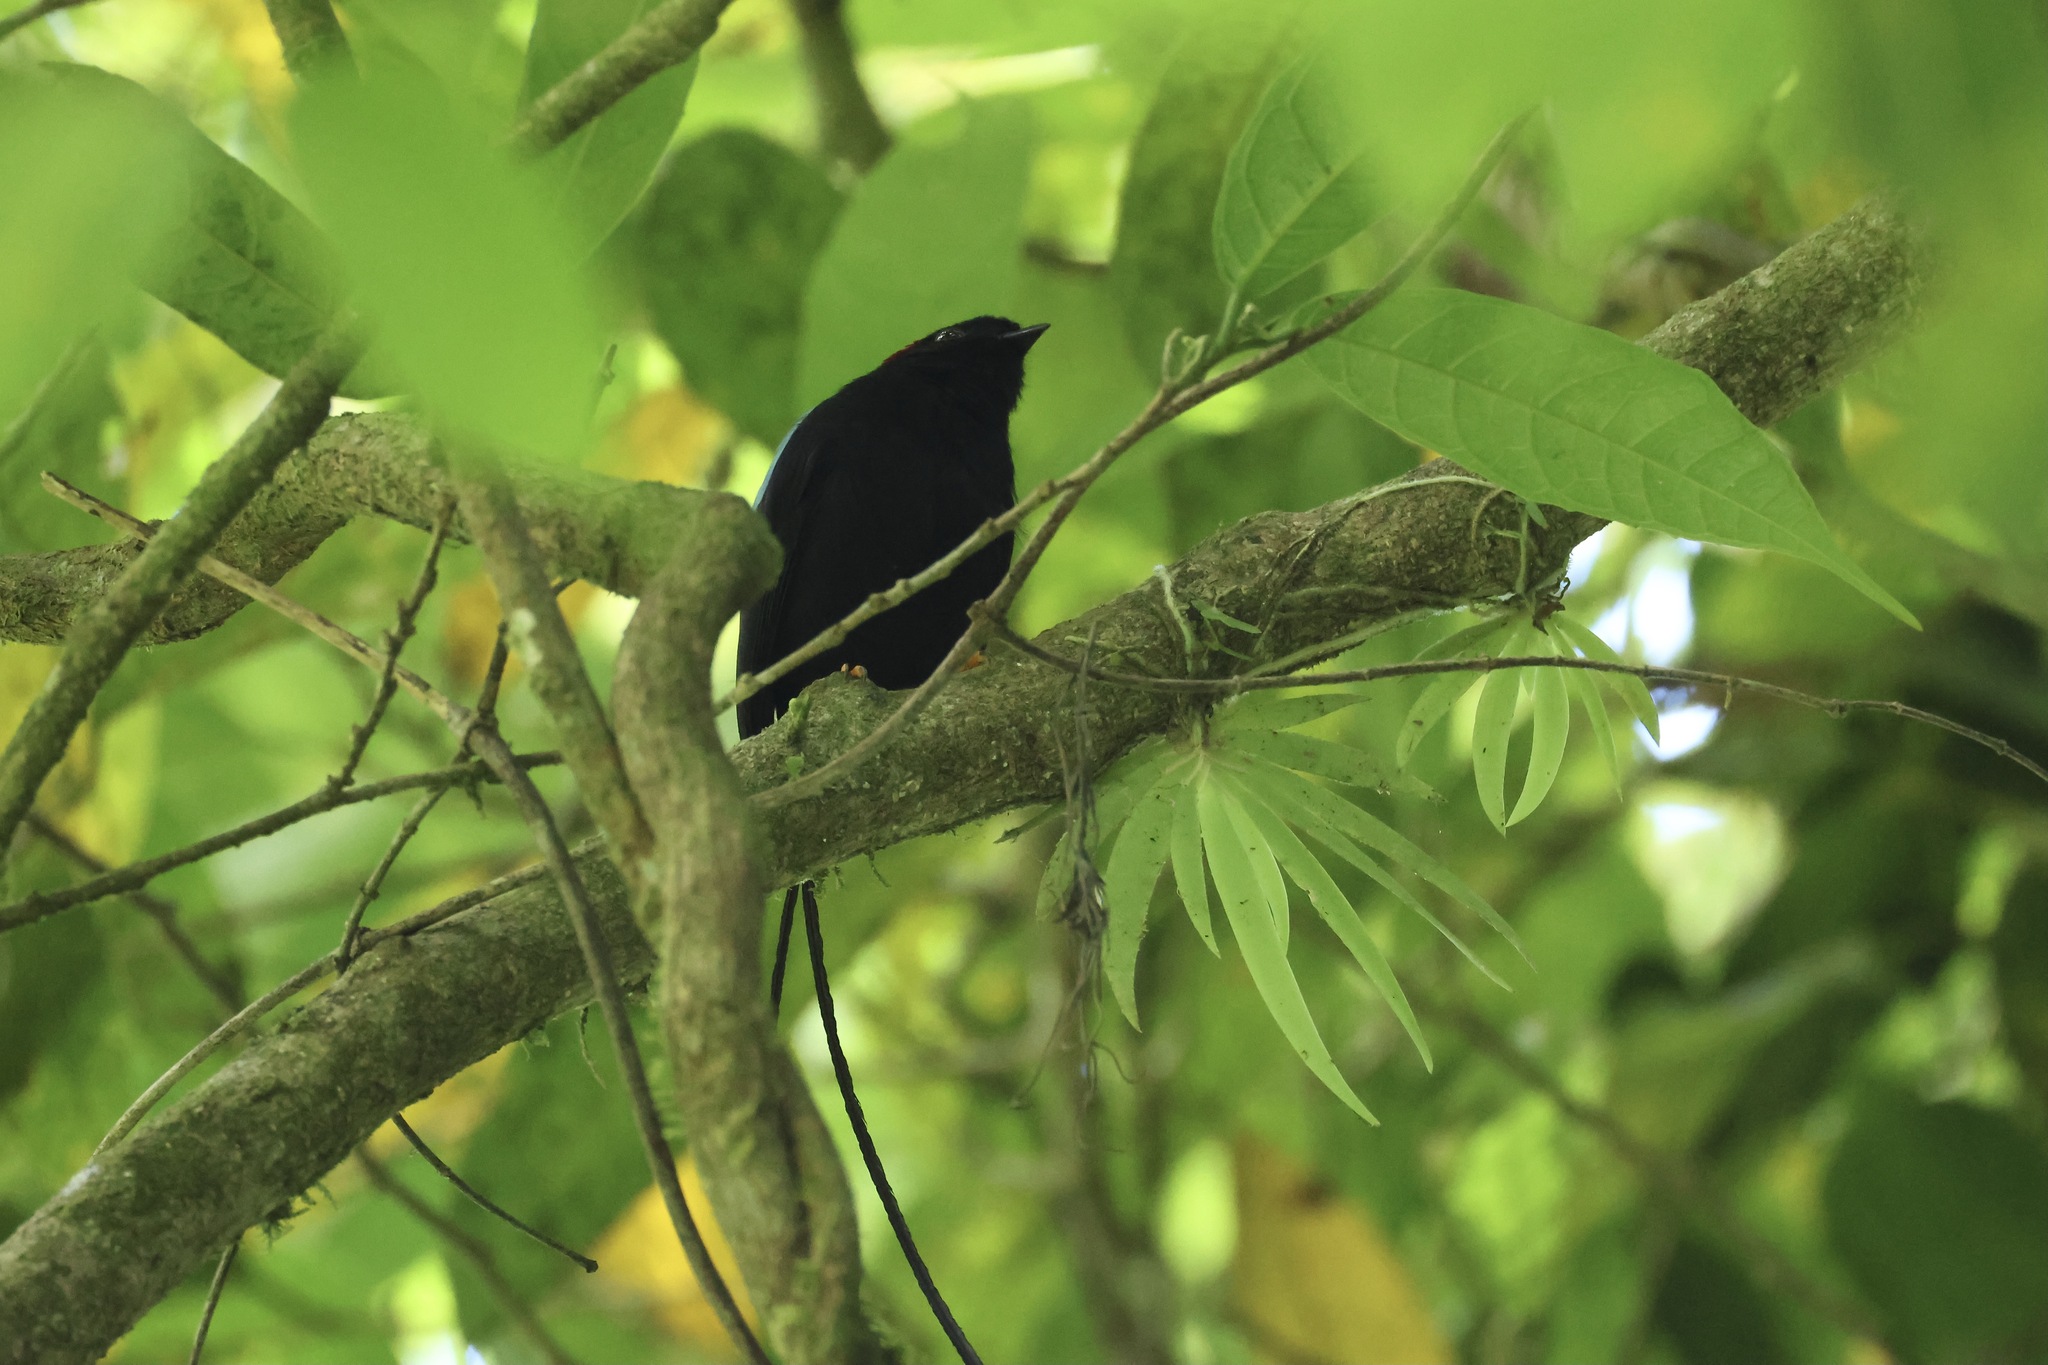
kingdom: Animalia
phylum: Chordata
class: Aves
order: Passeriformes
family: Pipridae
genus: Chiroxiphia
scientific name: Chiroxiphia linearis
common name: Long-tailed manakin
